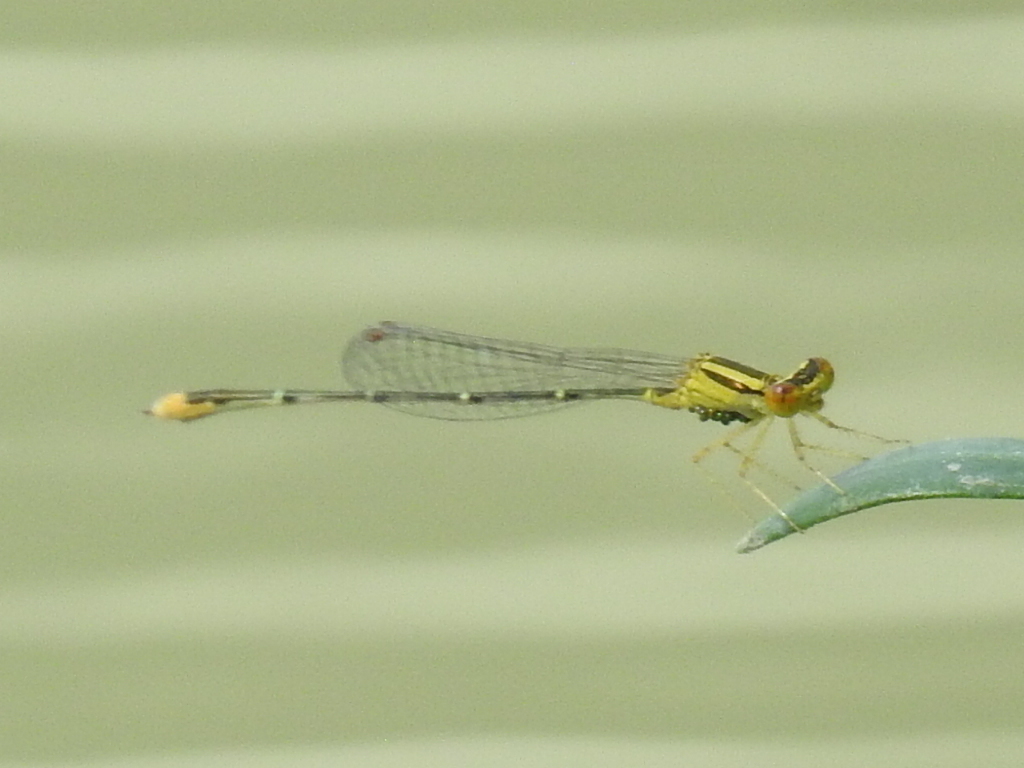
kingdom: Animalia
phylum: Arthropoda
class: Insecta
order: Odonata
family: Coenagrionidae
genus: Enallagma
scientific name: Enallagma signatum
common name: Orange bluet
